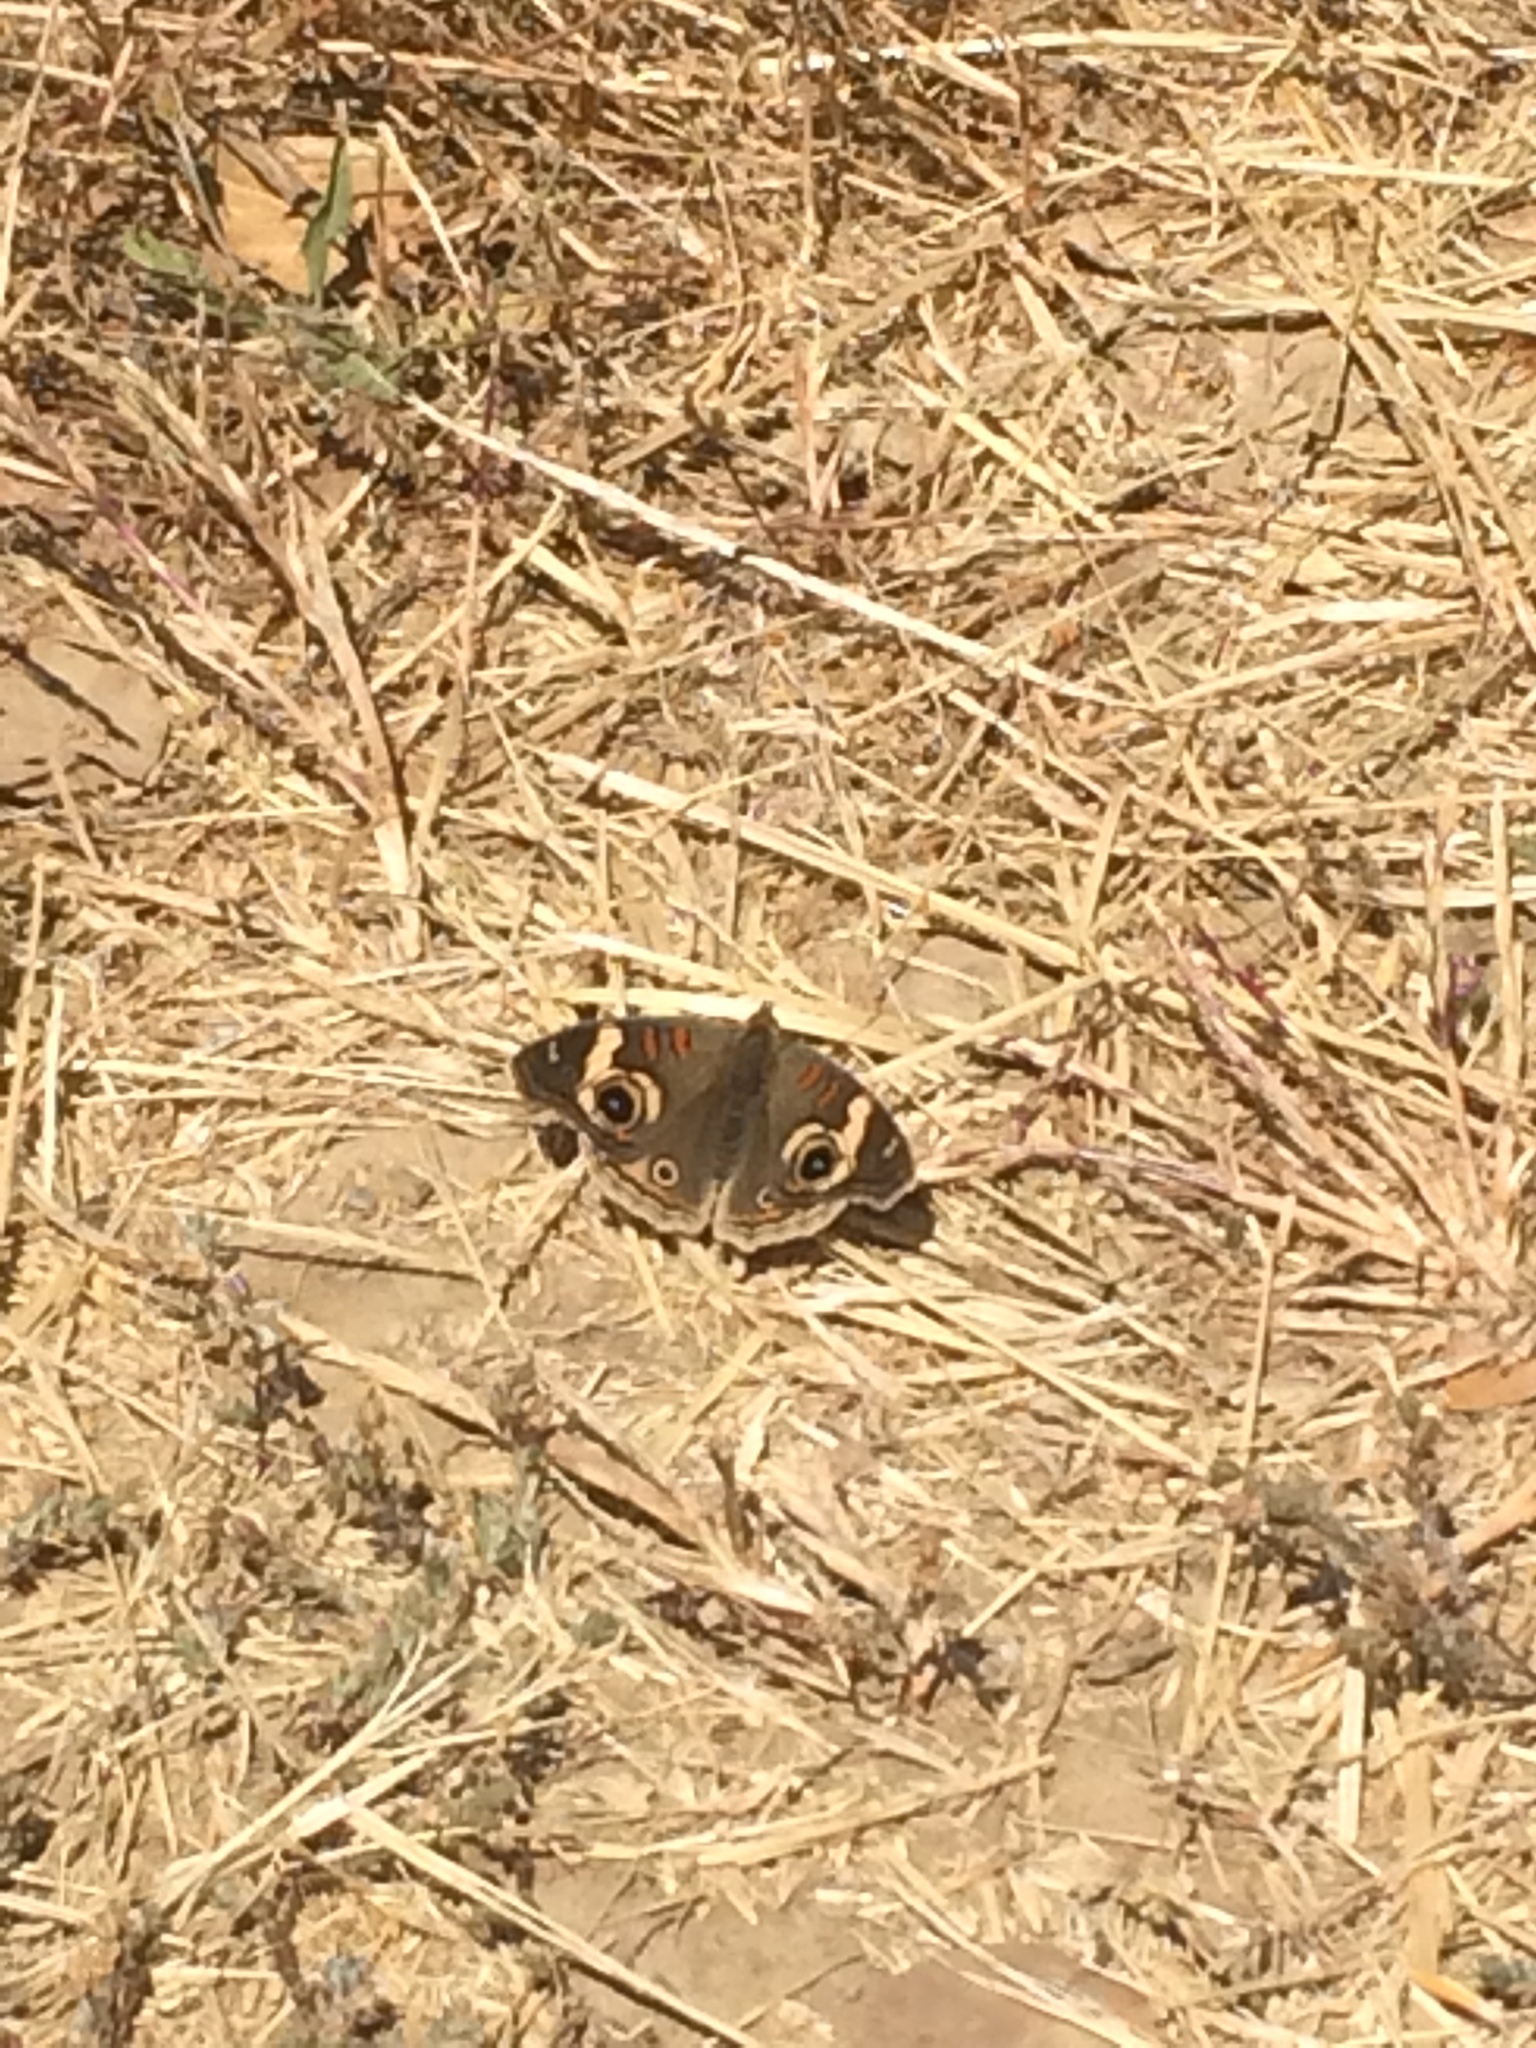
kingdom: Animalia
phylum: Arthropoda
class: Insecta
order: Lepidoptera
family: Nymphalidae
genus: Junonia
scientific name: Junonia grisea
